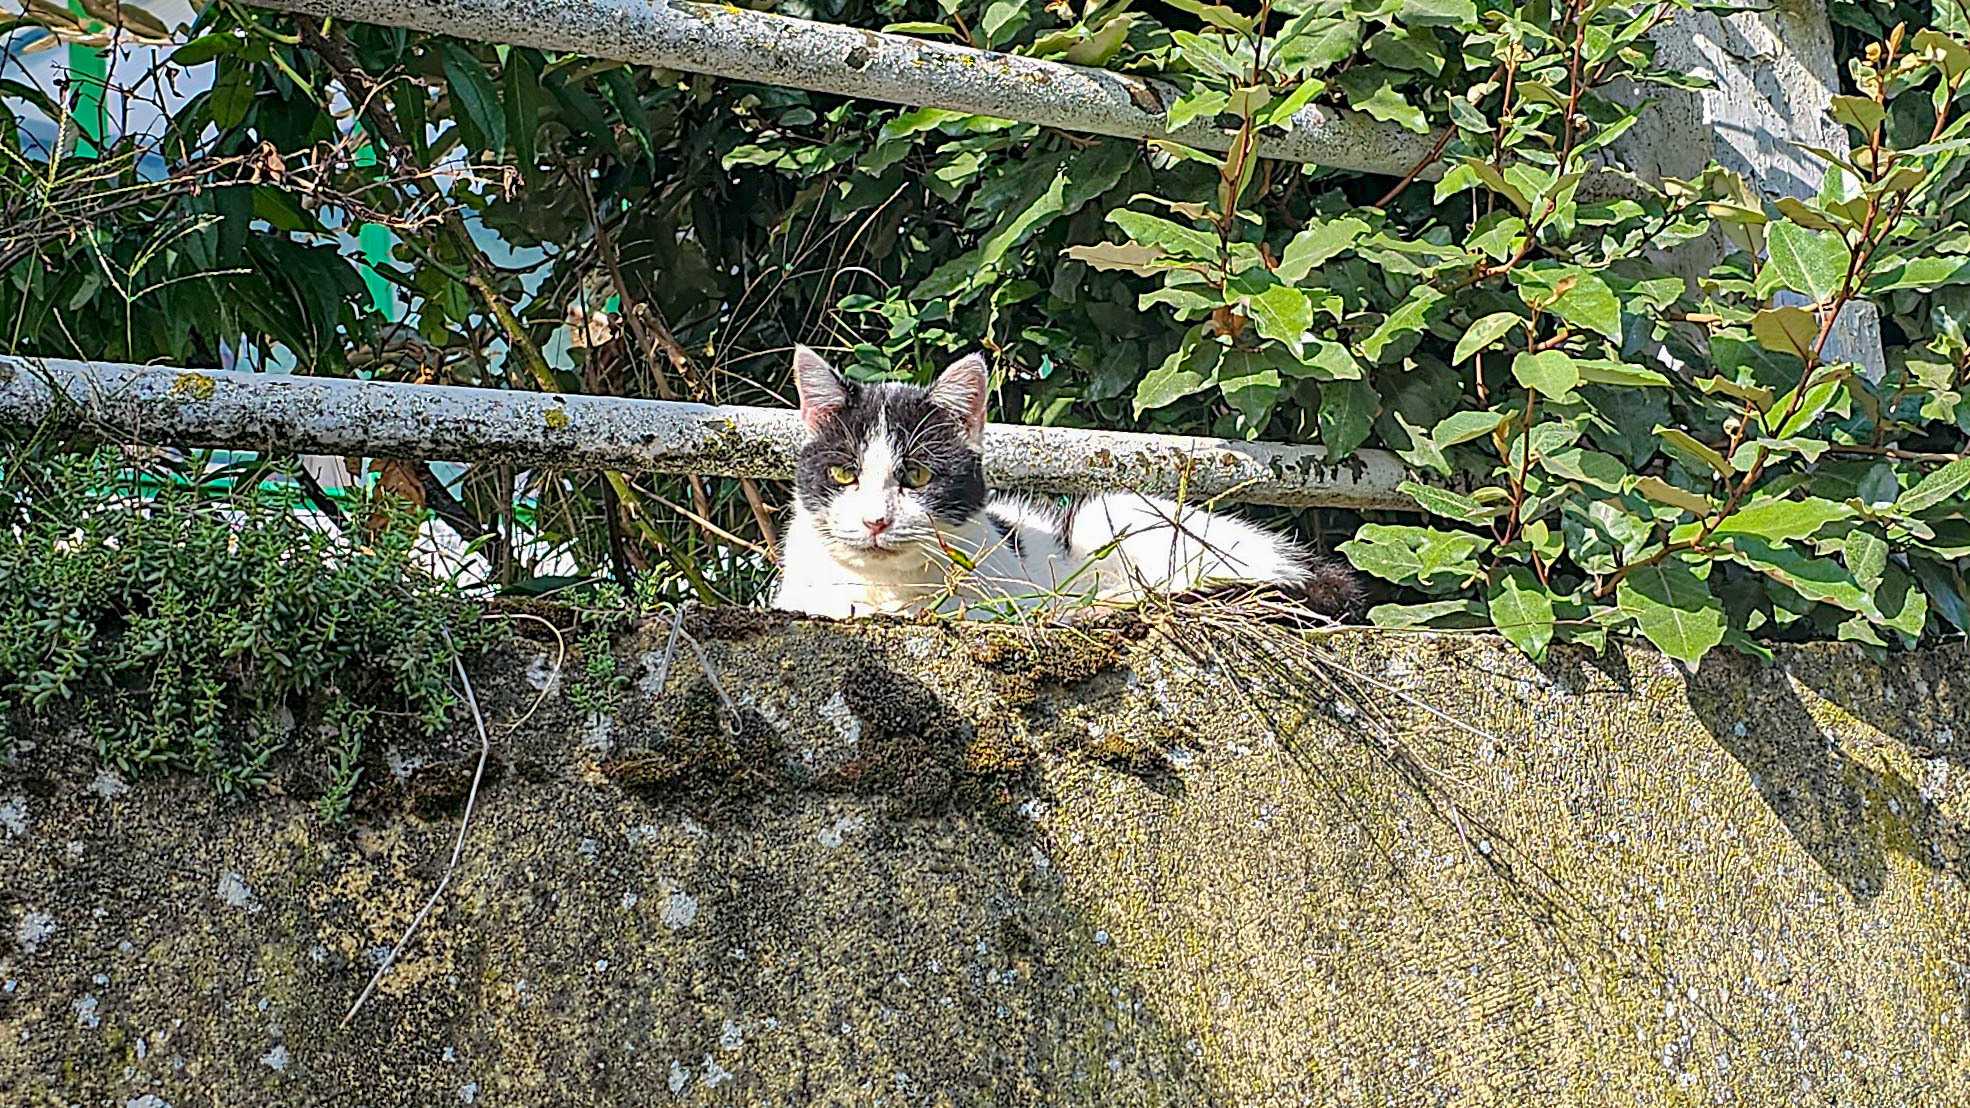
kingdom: Animalia
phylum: Chordata
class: Mammalia
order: Carnivora
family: Felidae
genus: Felis
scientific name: Felis catus
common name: Domestic cat
